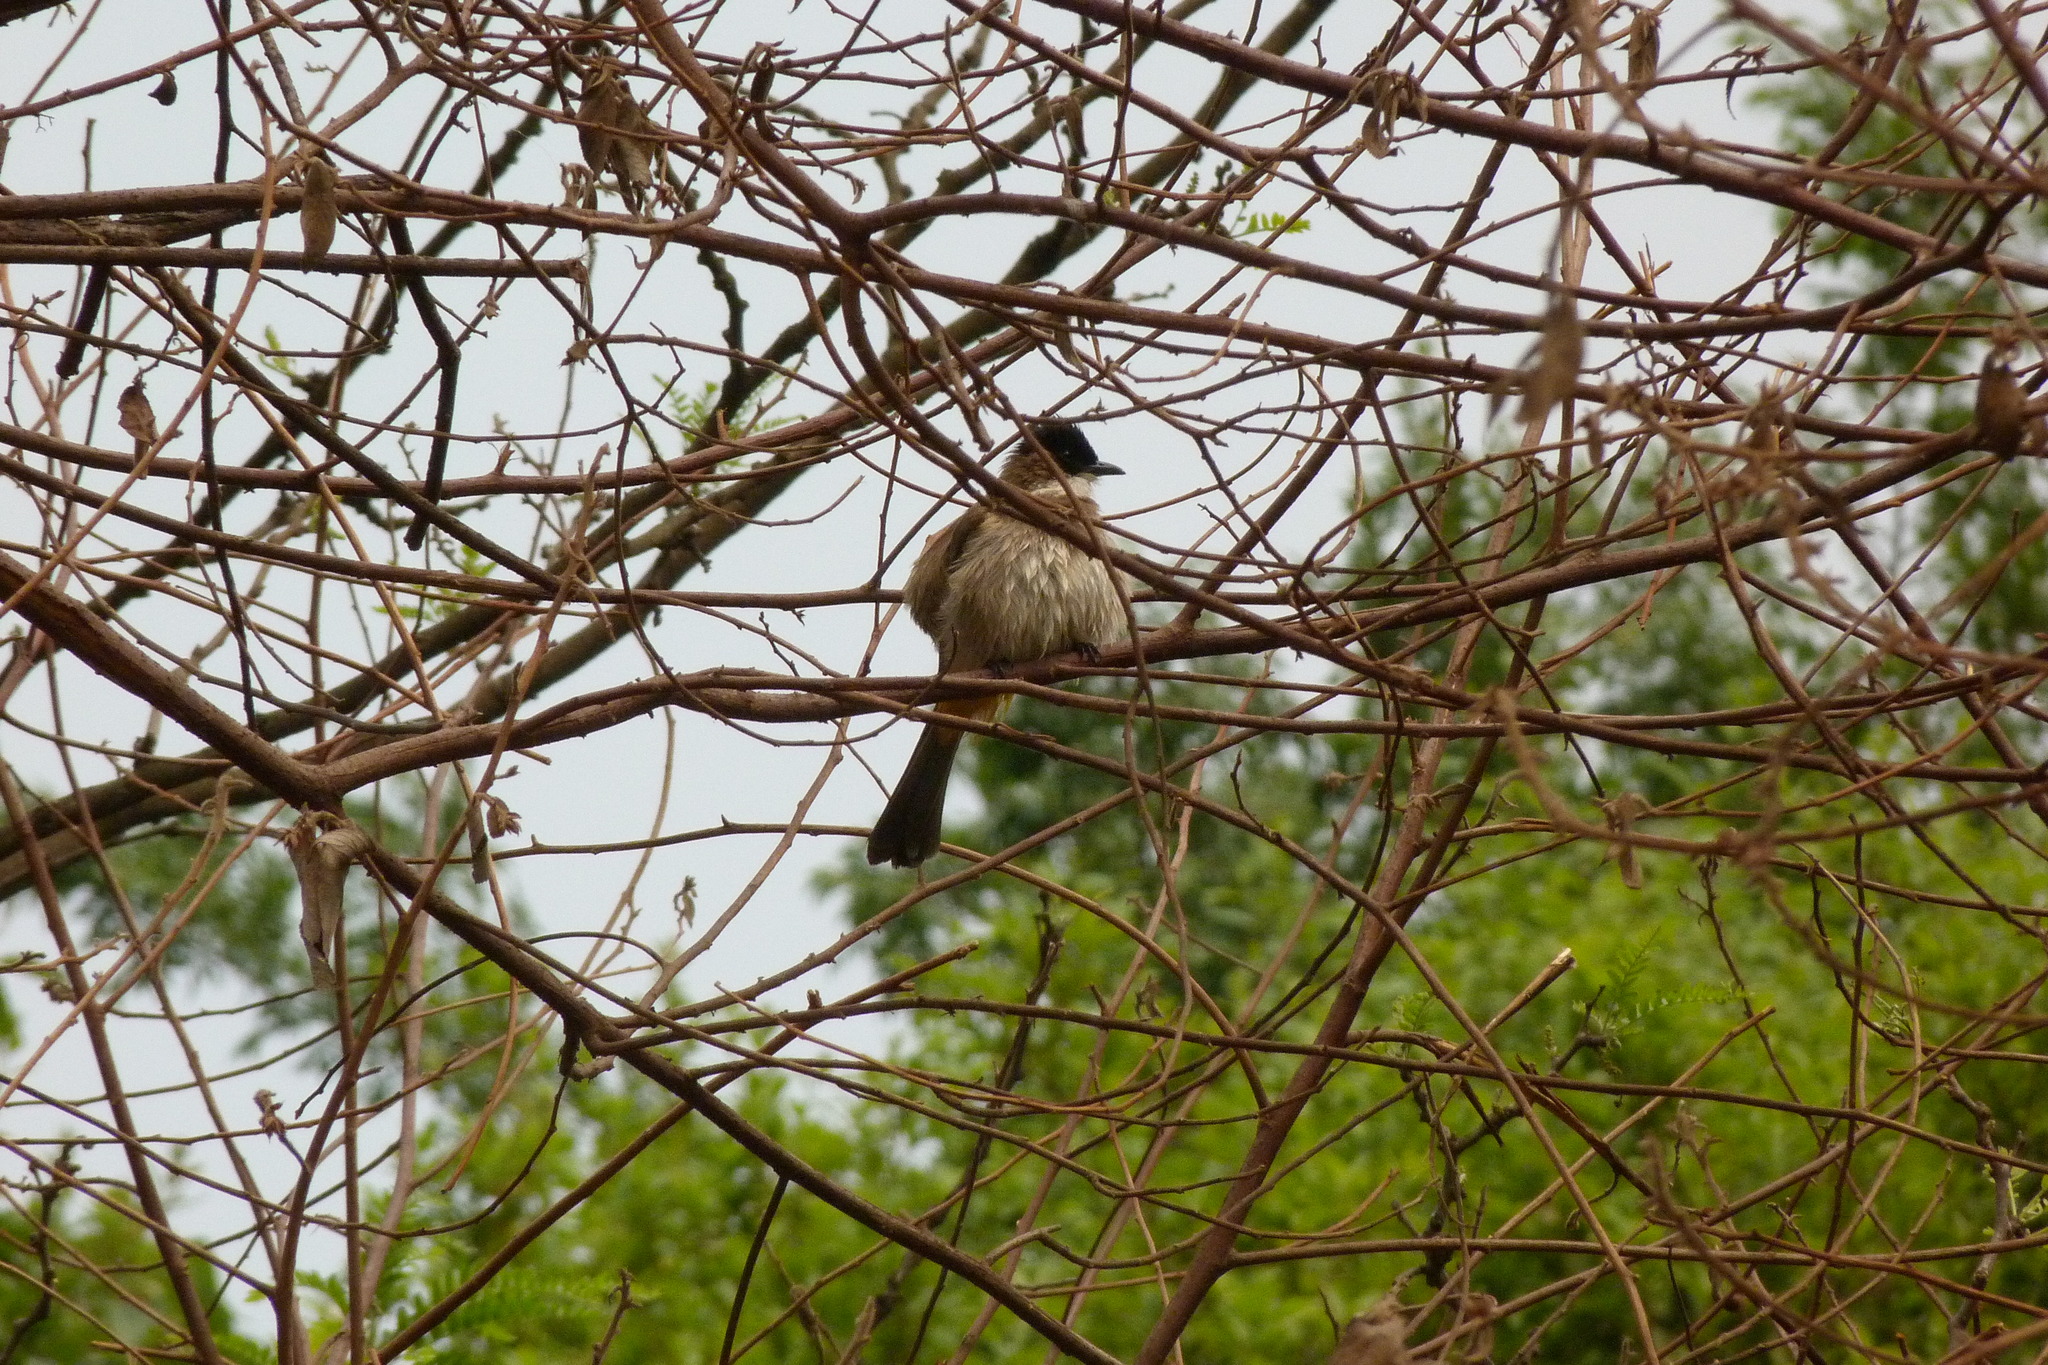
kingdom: Animalia
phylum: Chordata
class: Aves
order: Passeriformes
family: Pycnonotidae
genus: Pycnonotus
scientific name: Pycnonotus xanthorrhous
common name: Brown-breasted bulbul
